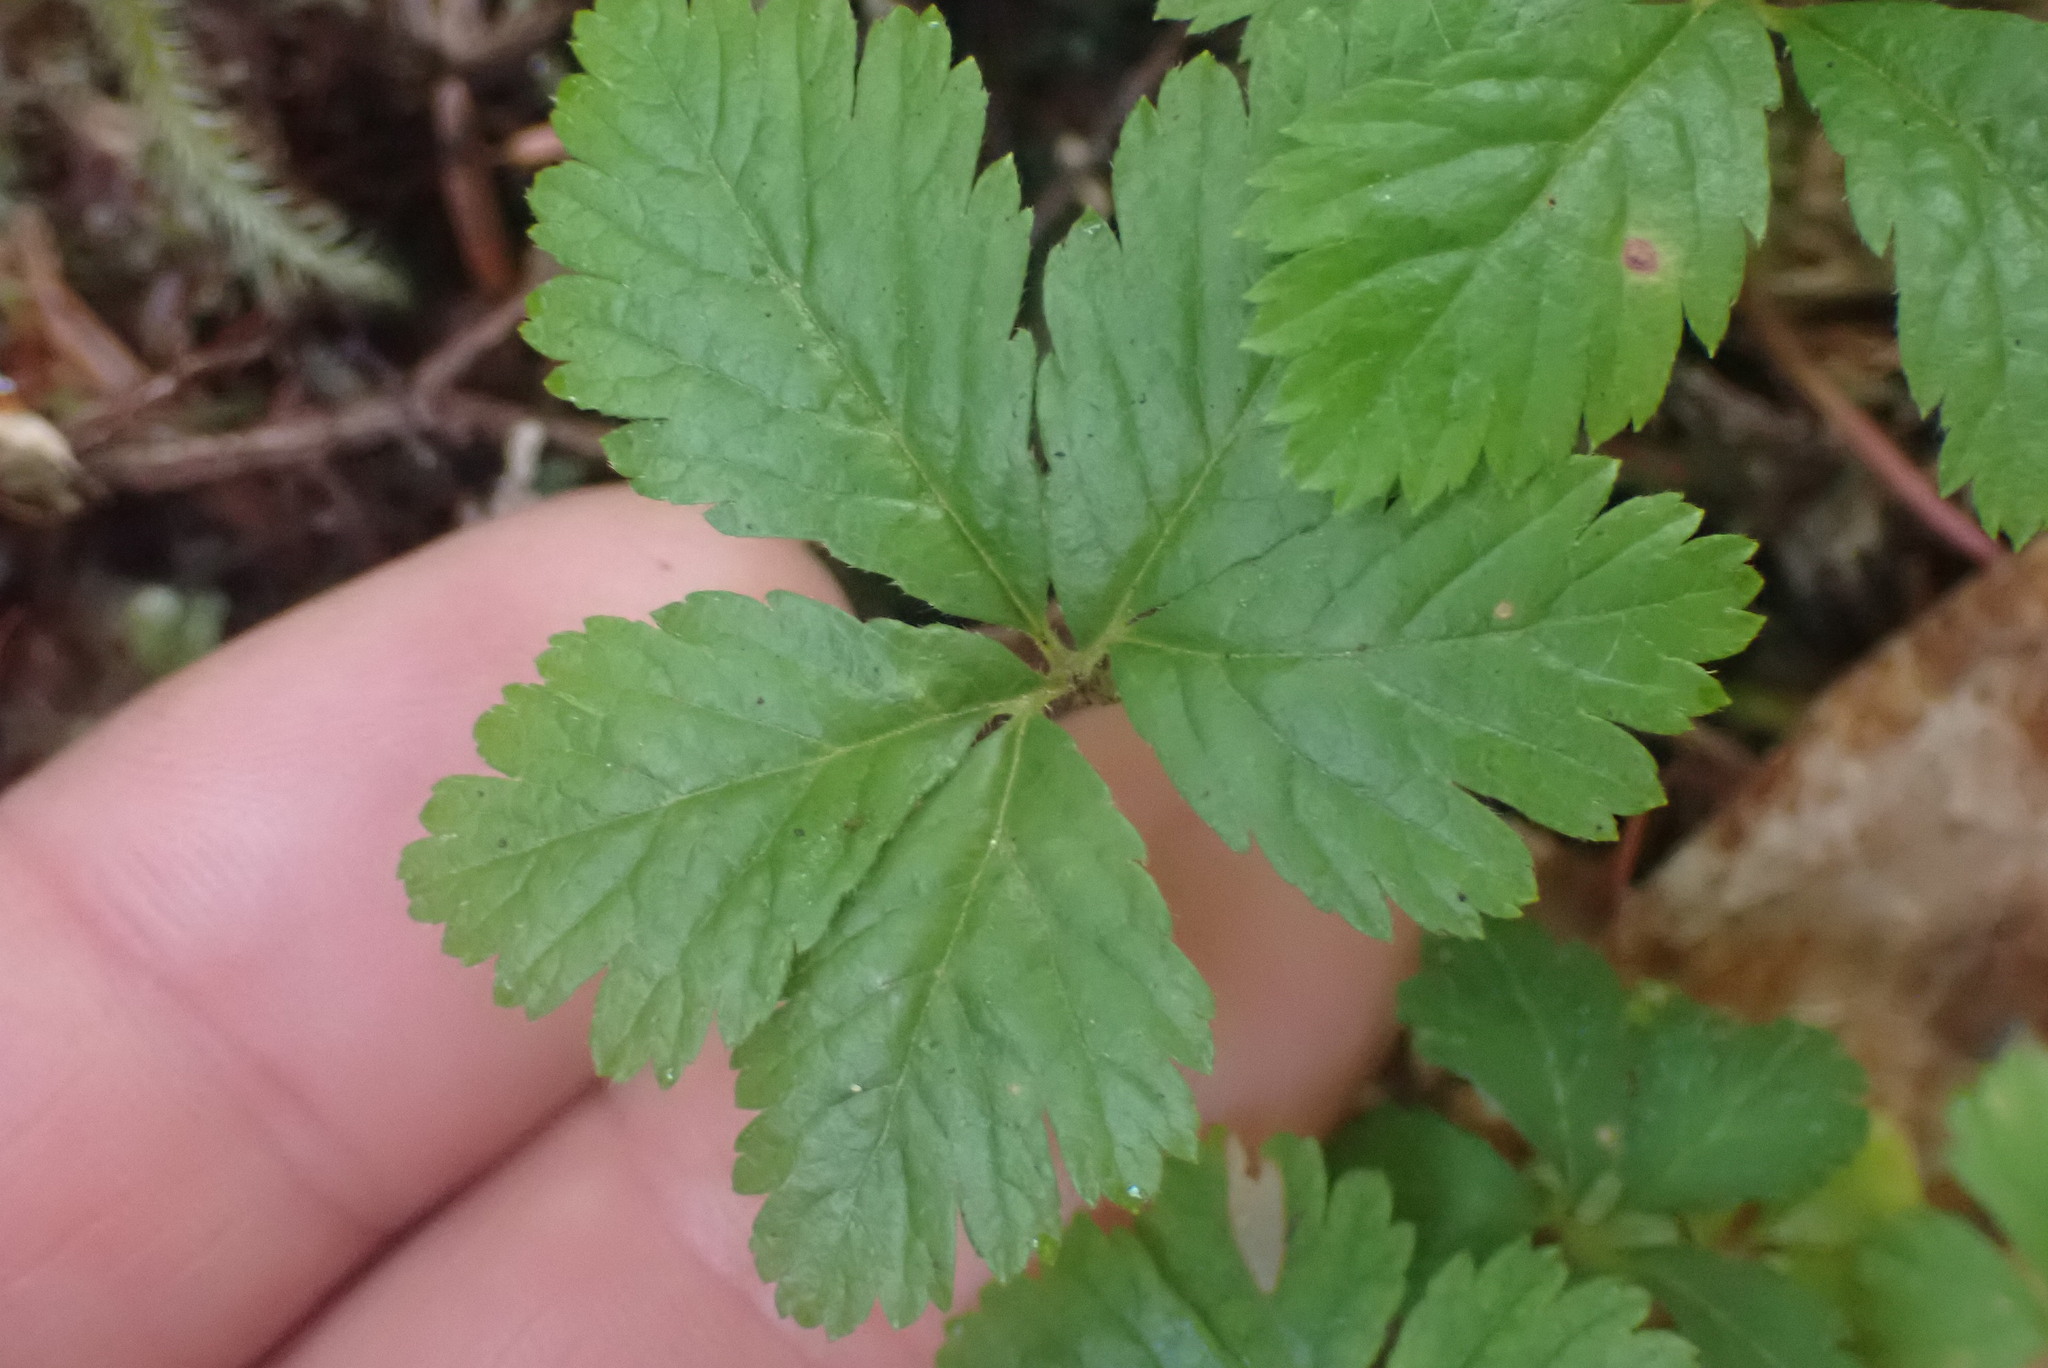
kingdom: Plantae
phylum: Tracheophyta
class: Magnoliopsida
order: Rosales
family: Rosaceae
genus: Rubus
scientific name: Rubus pedatus
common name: Creeping raspberry
